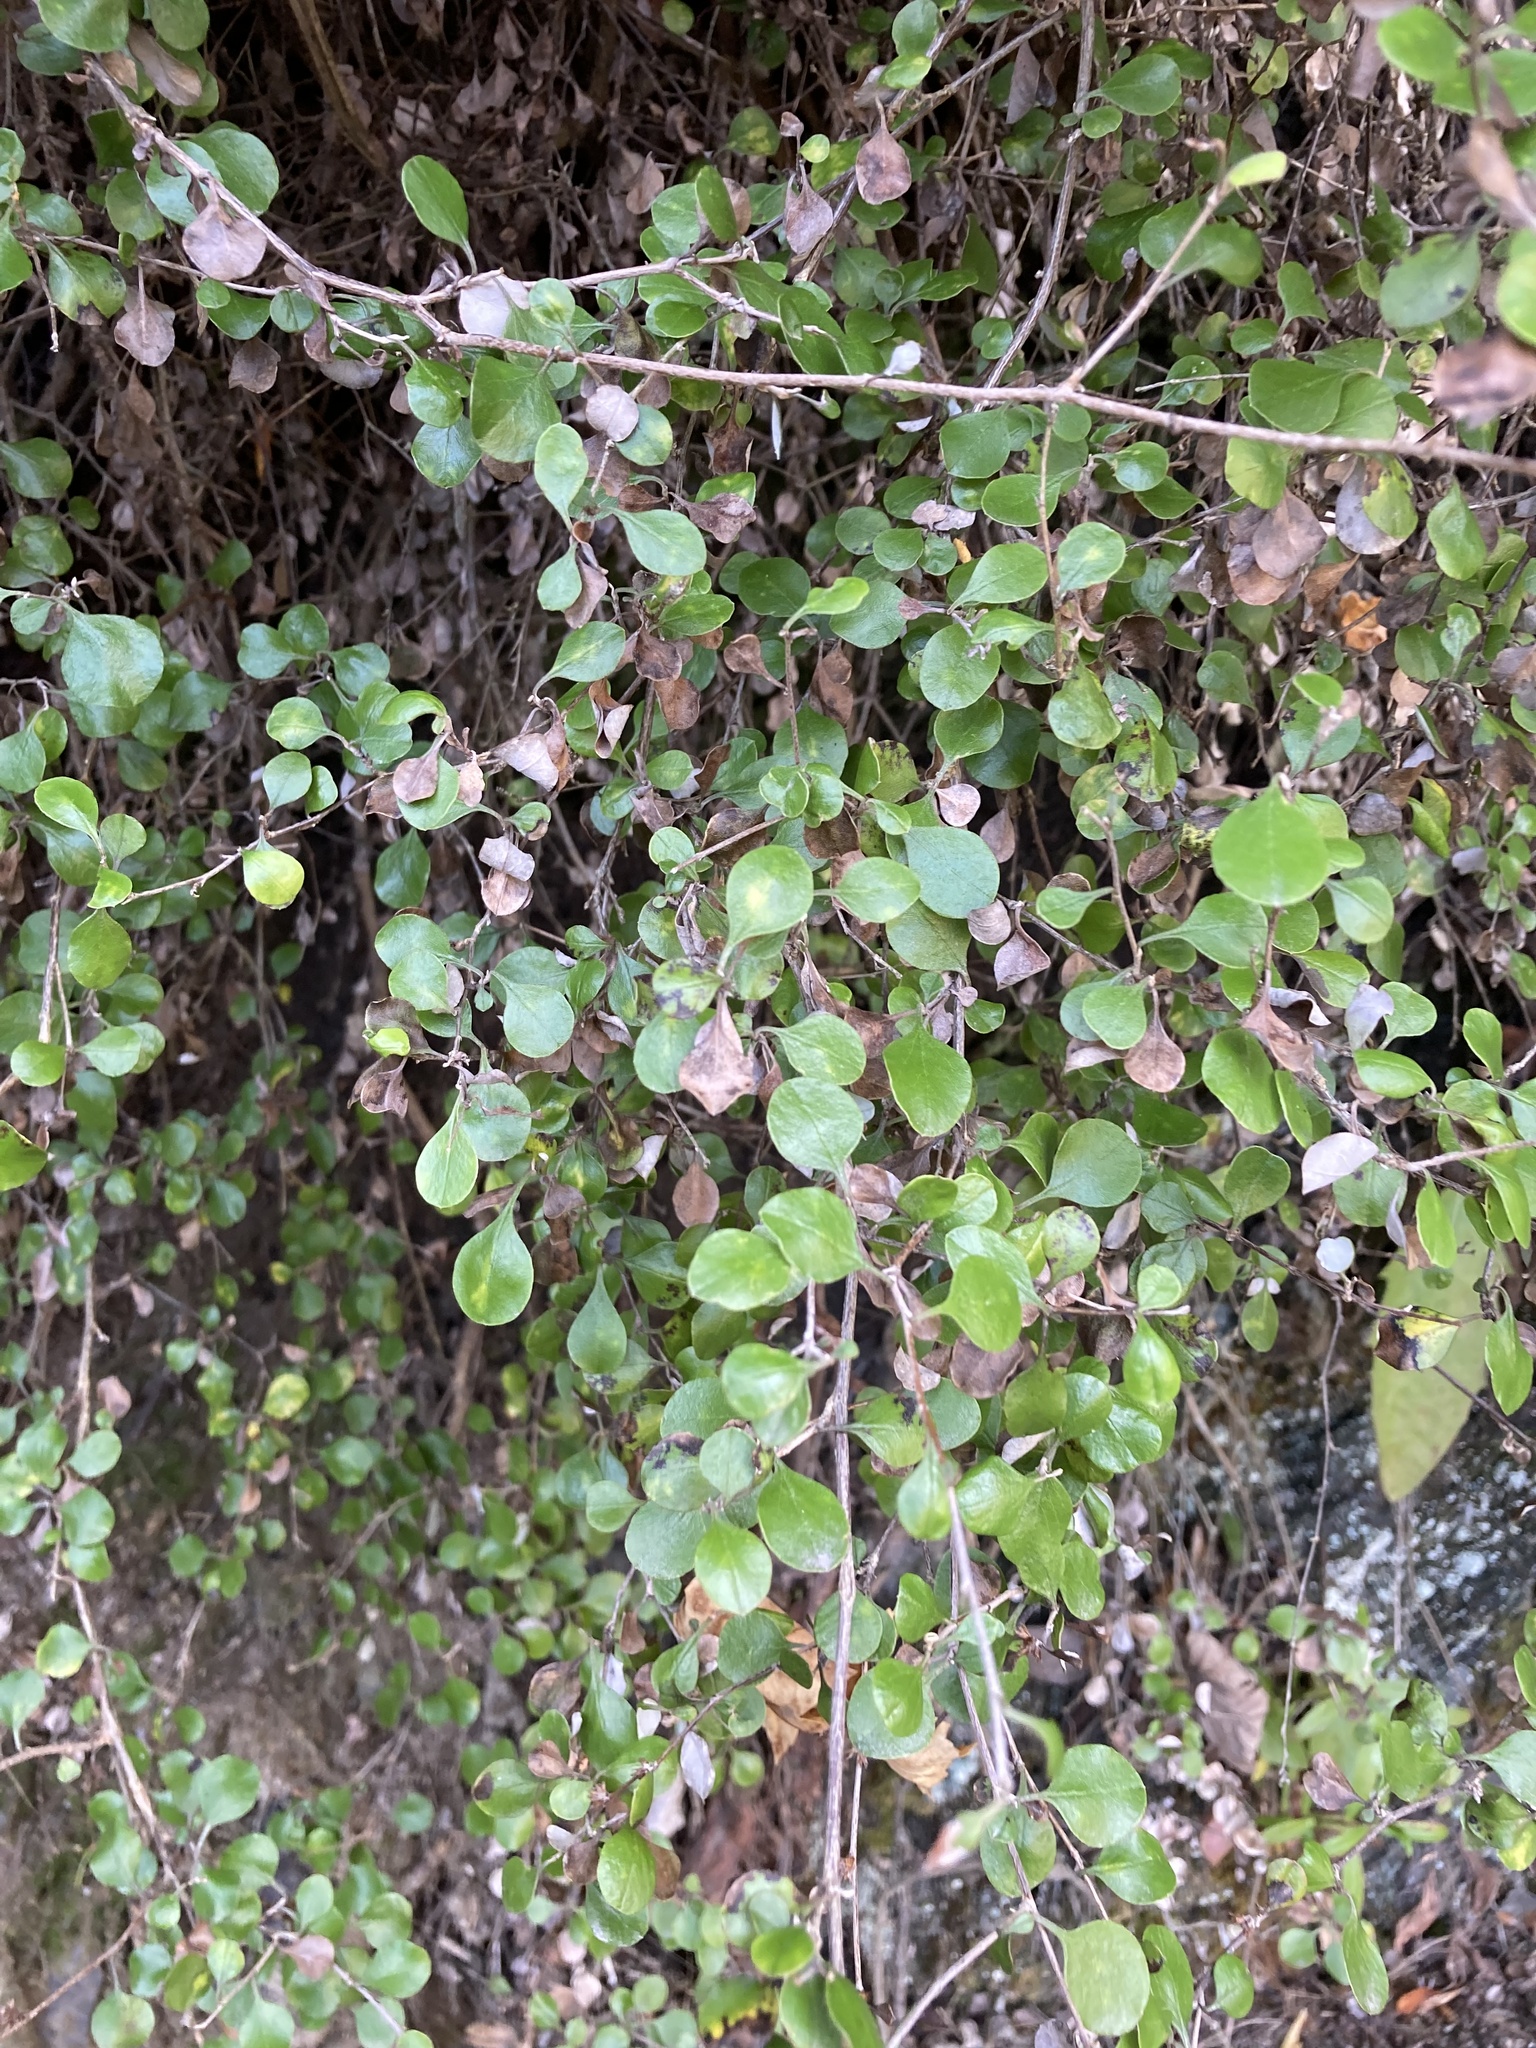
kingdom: Plantae
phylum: Tracheophyta
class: Magnoliopsida
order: Asterales
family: Asteraceae
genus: Ozothamnus
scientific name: Ozothamnus glomeratus
